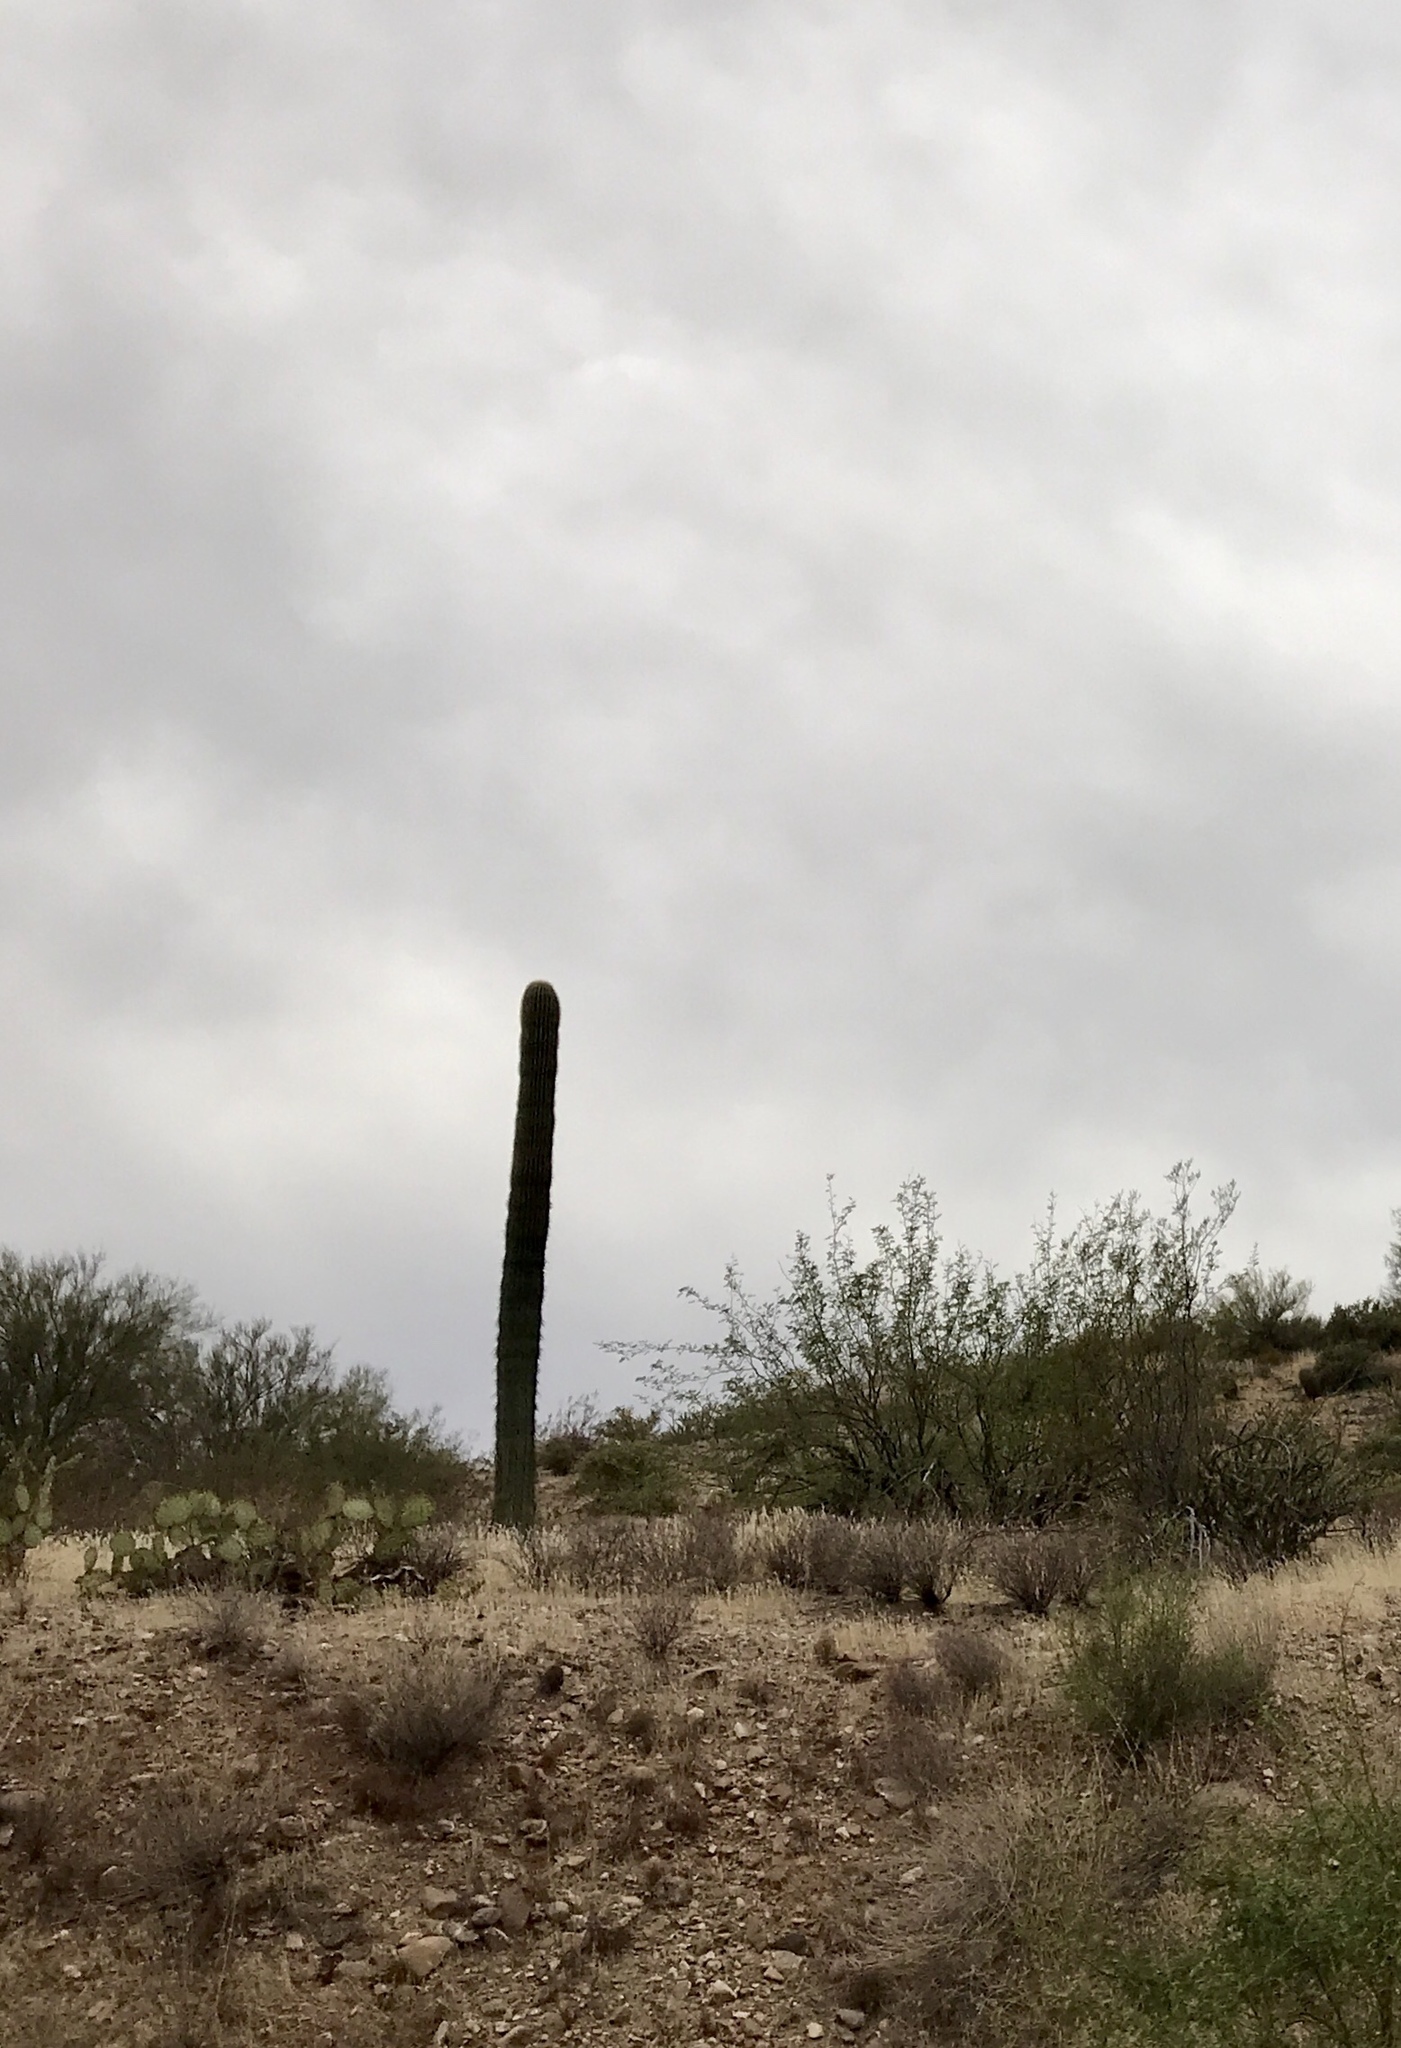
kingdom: Plantae
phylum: Tracheophyta
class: Magnoliopsida
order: Caryophyllales
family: Cactaceae
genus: Carnegiea
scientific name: Carnegiea gigantea
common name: Saguaro
